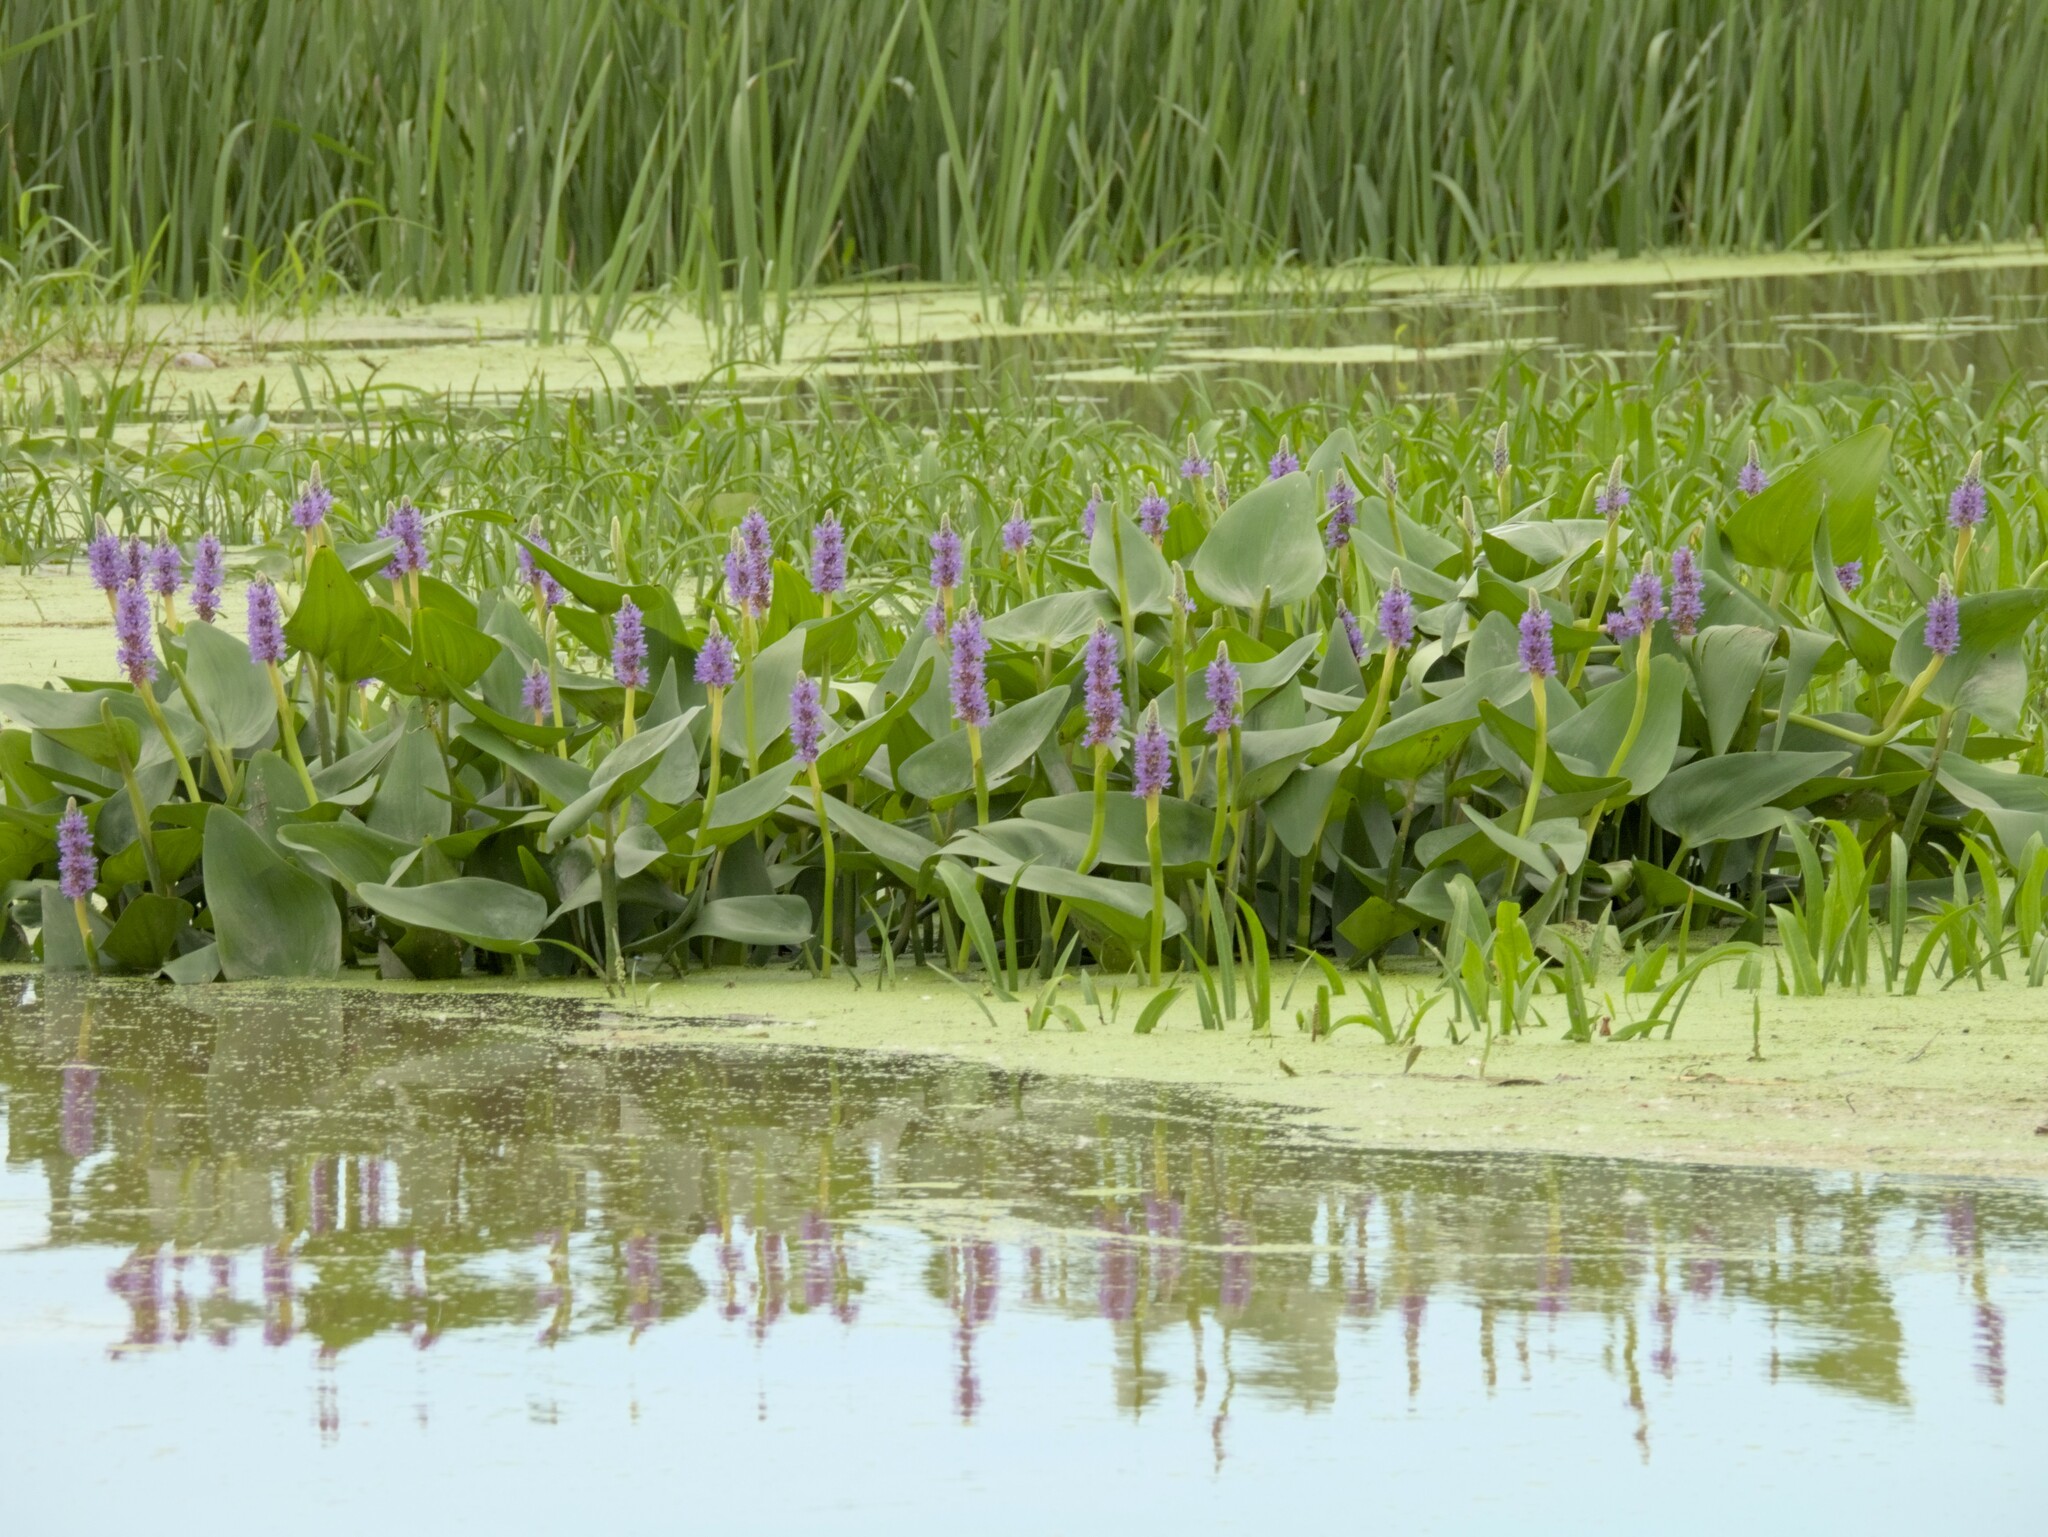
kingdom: Plantae
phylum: Tracheophyta
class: Liliopsida
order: Commelinales
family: Pontederiaceae
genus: Pontederia
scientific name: Pontederia cordata
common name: Pickerelweed
